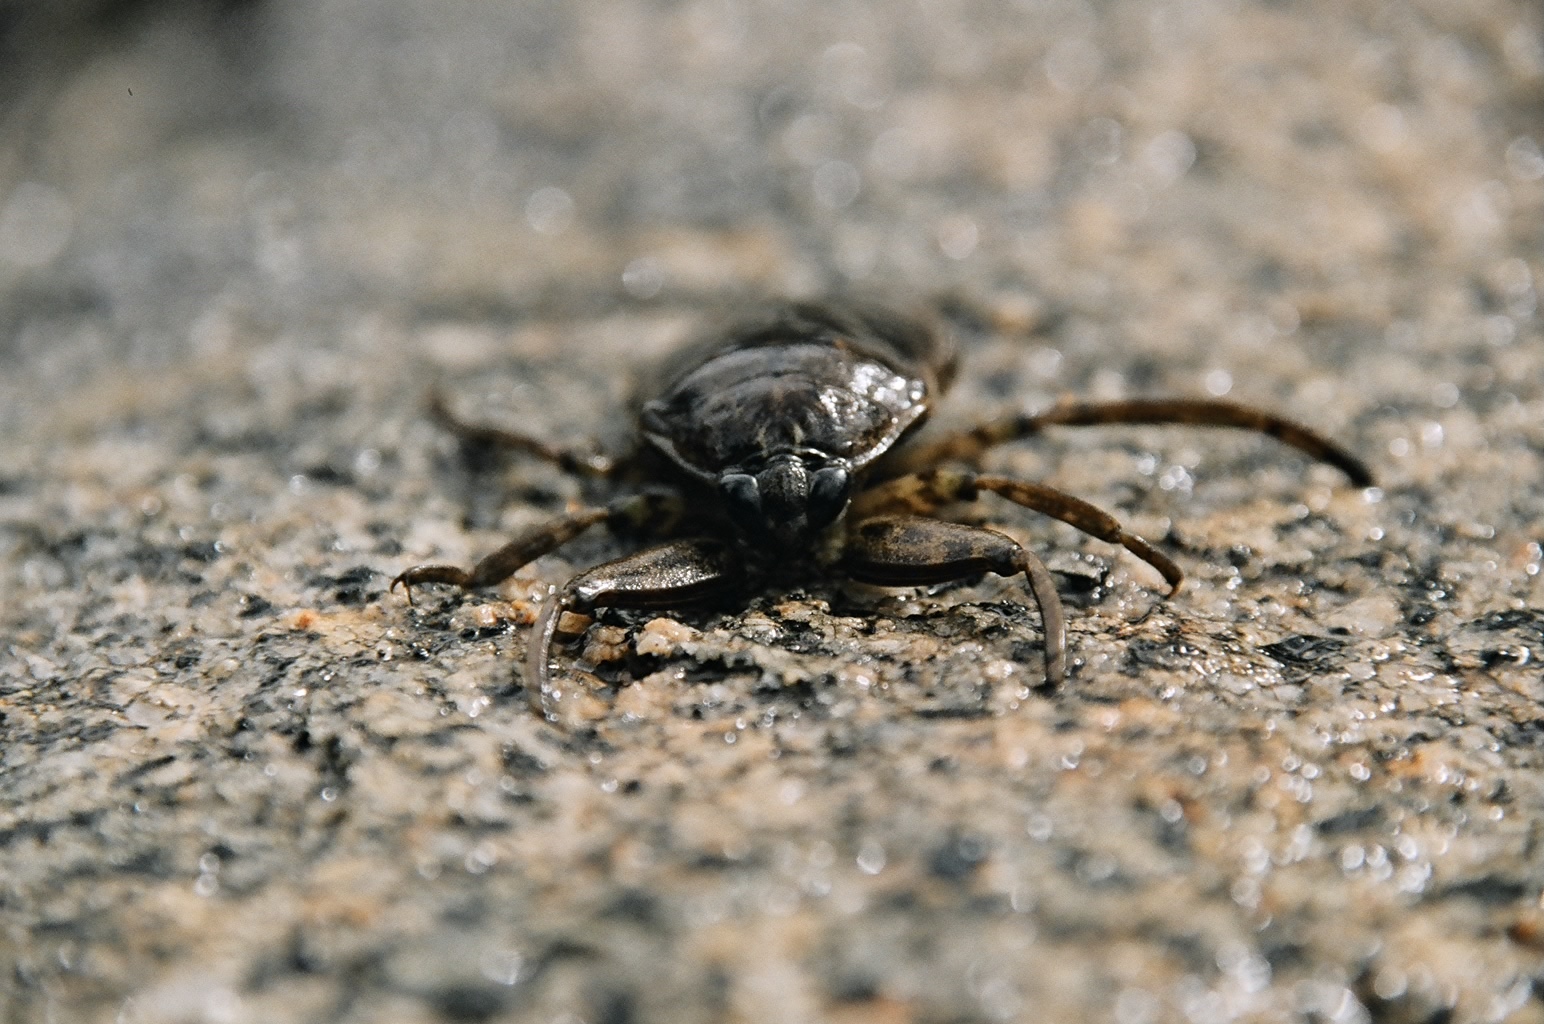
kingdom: Animalia
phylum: Arthropoda
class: Insecta
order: Hemiptera
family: Belostomatidae
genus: Lethocerus
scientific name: Lethocerus americanus
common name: Giant water bug
